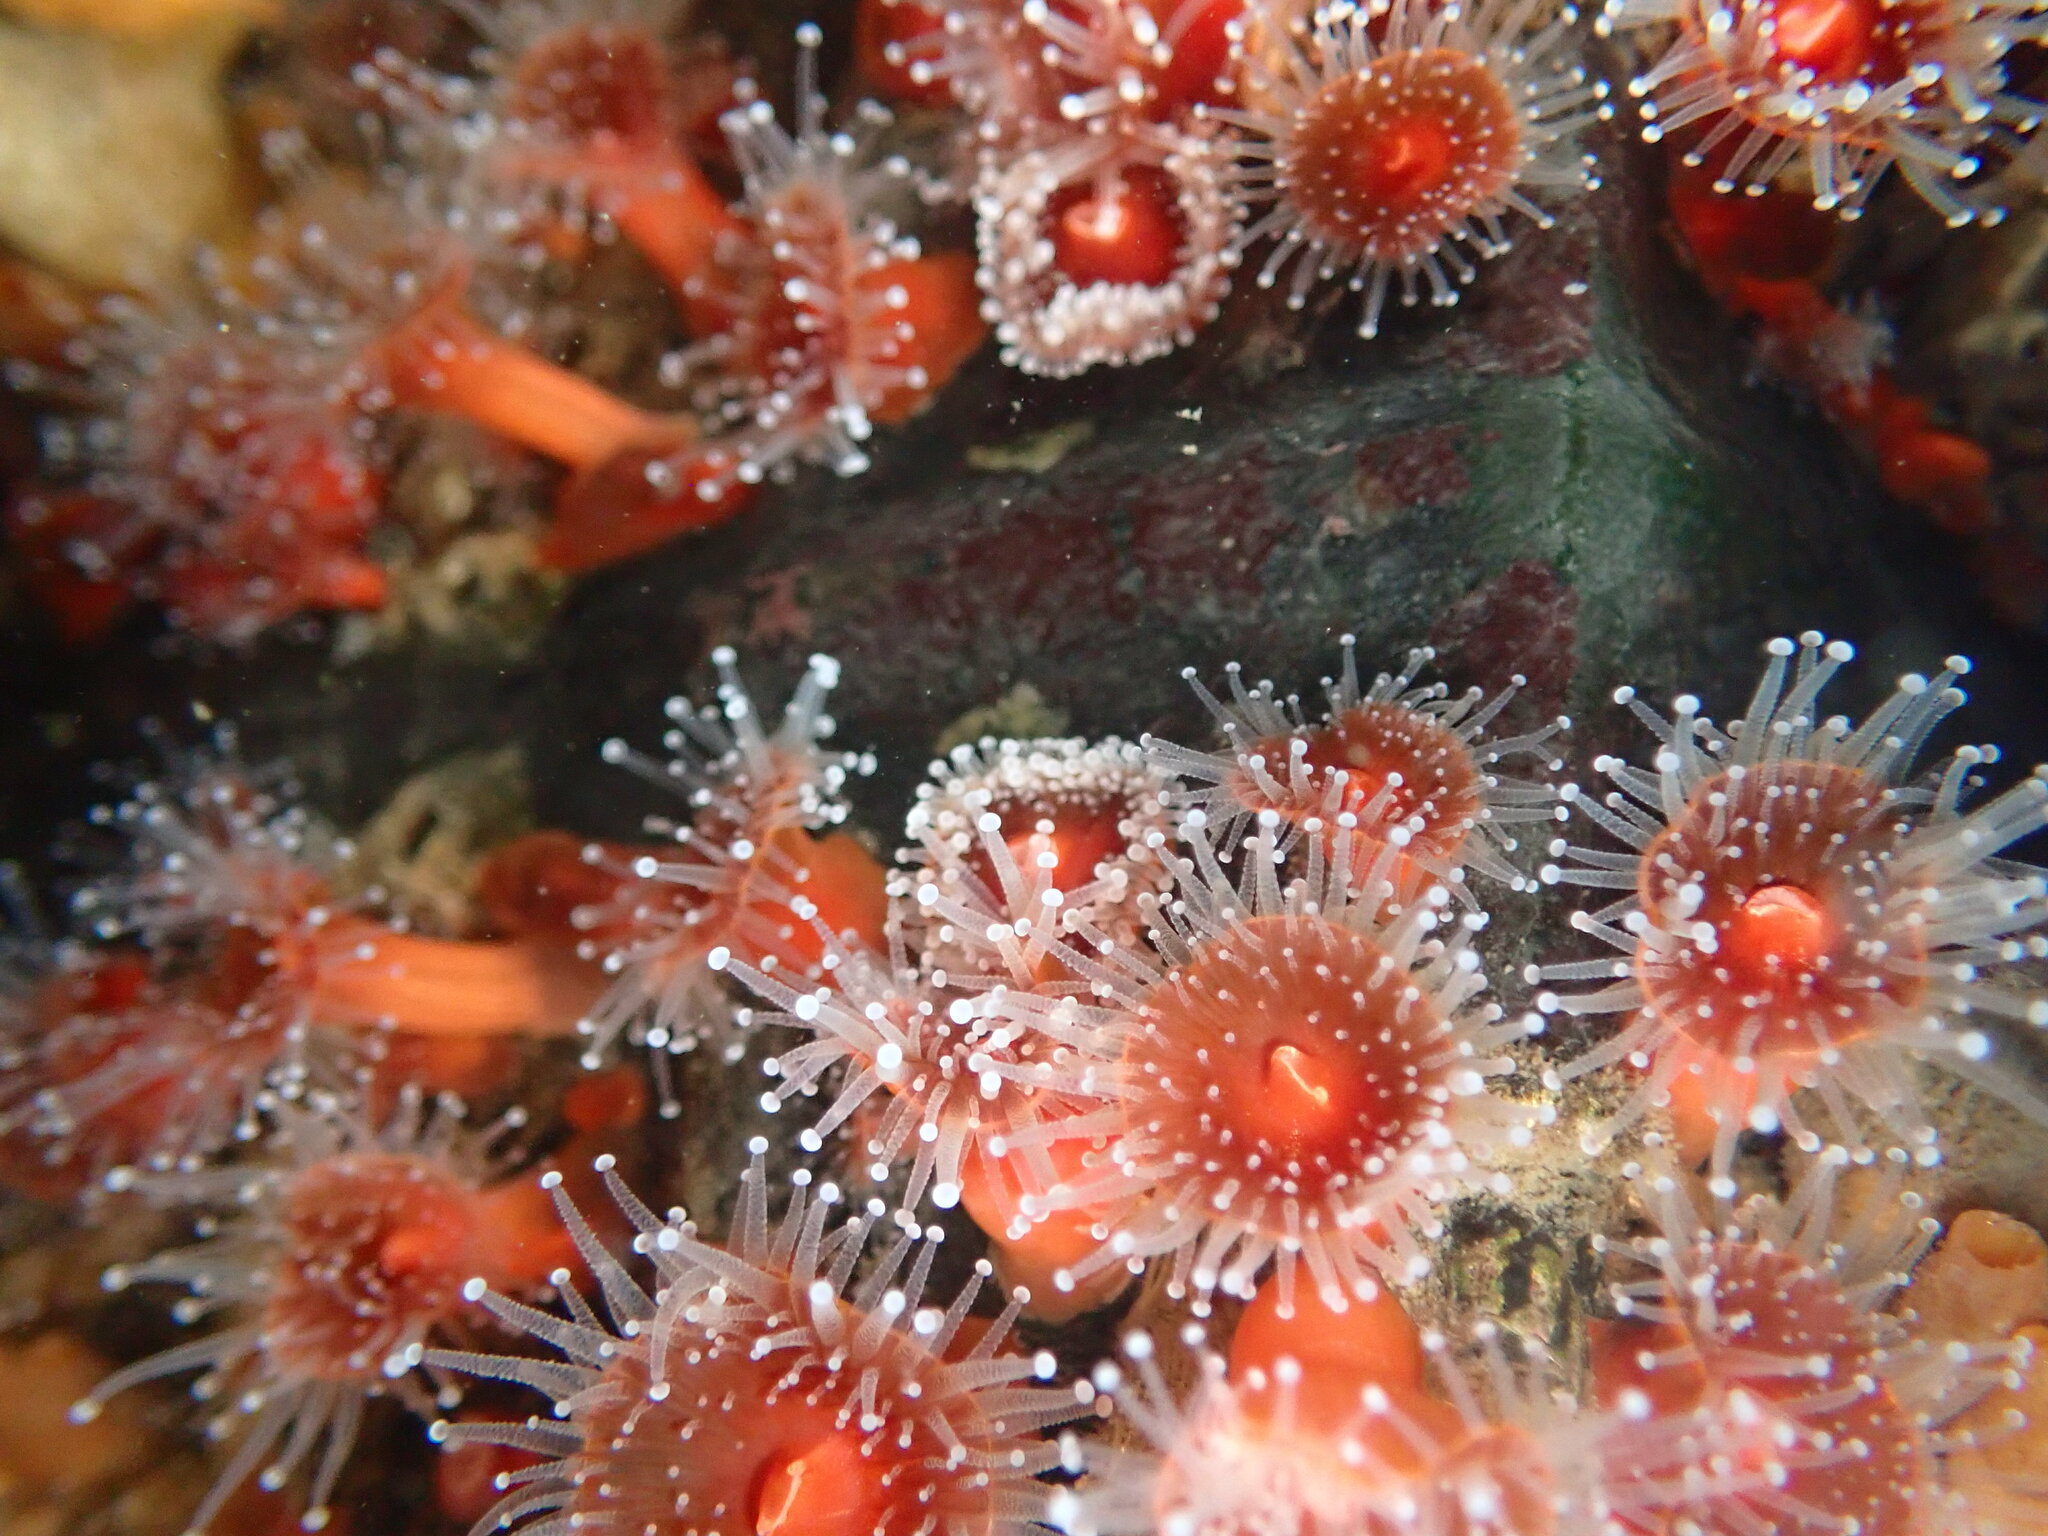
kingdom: Animalia
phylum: Cnidaria
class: Anthozoa
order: Corallimorpharia
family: Corallimorphidae
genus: Corynactis
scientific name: Corynactis californica
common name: Strawberry corallimorpharian
